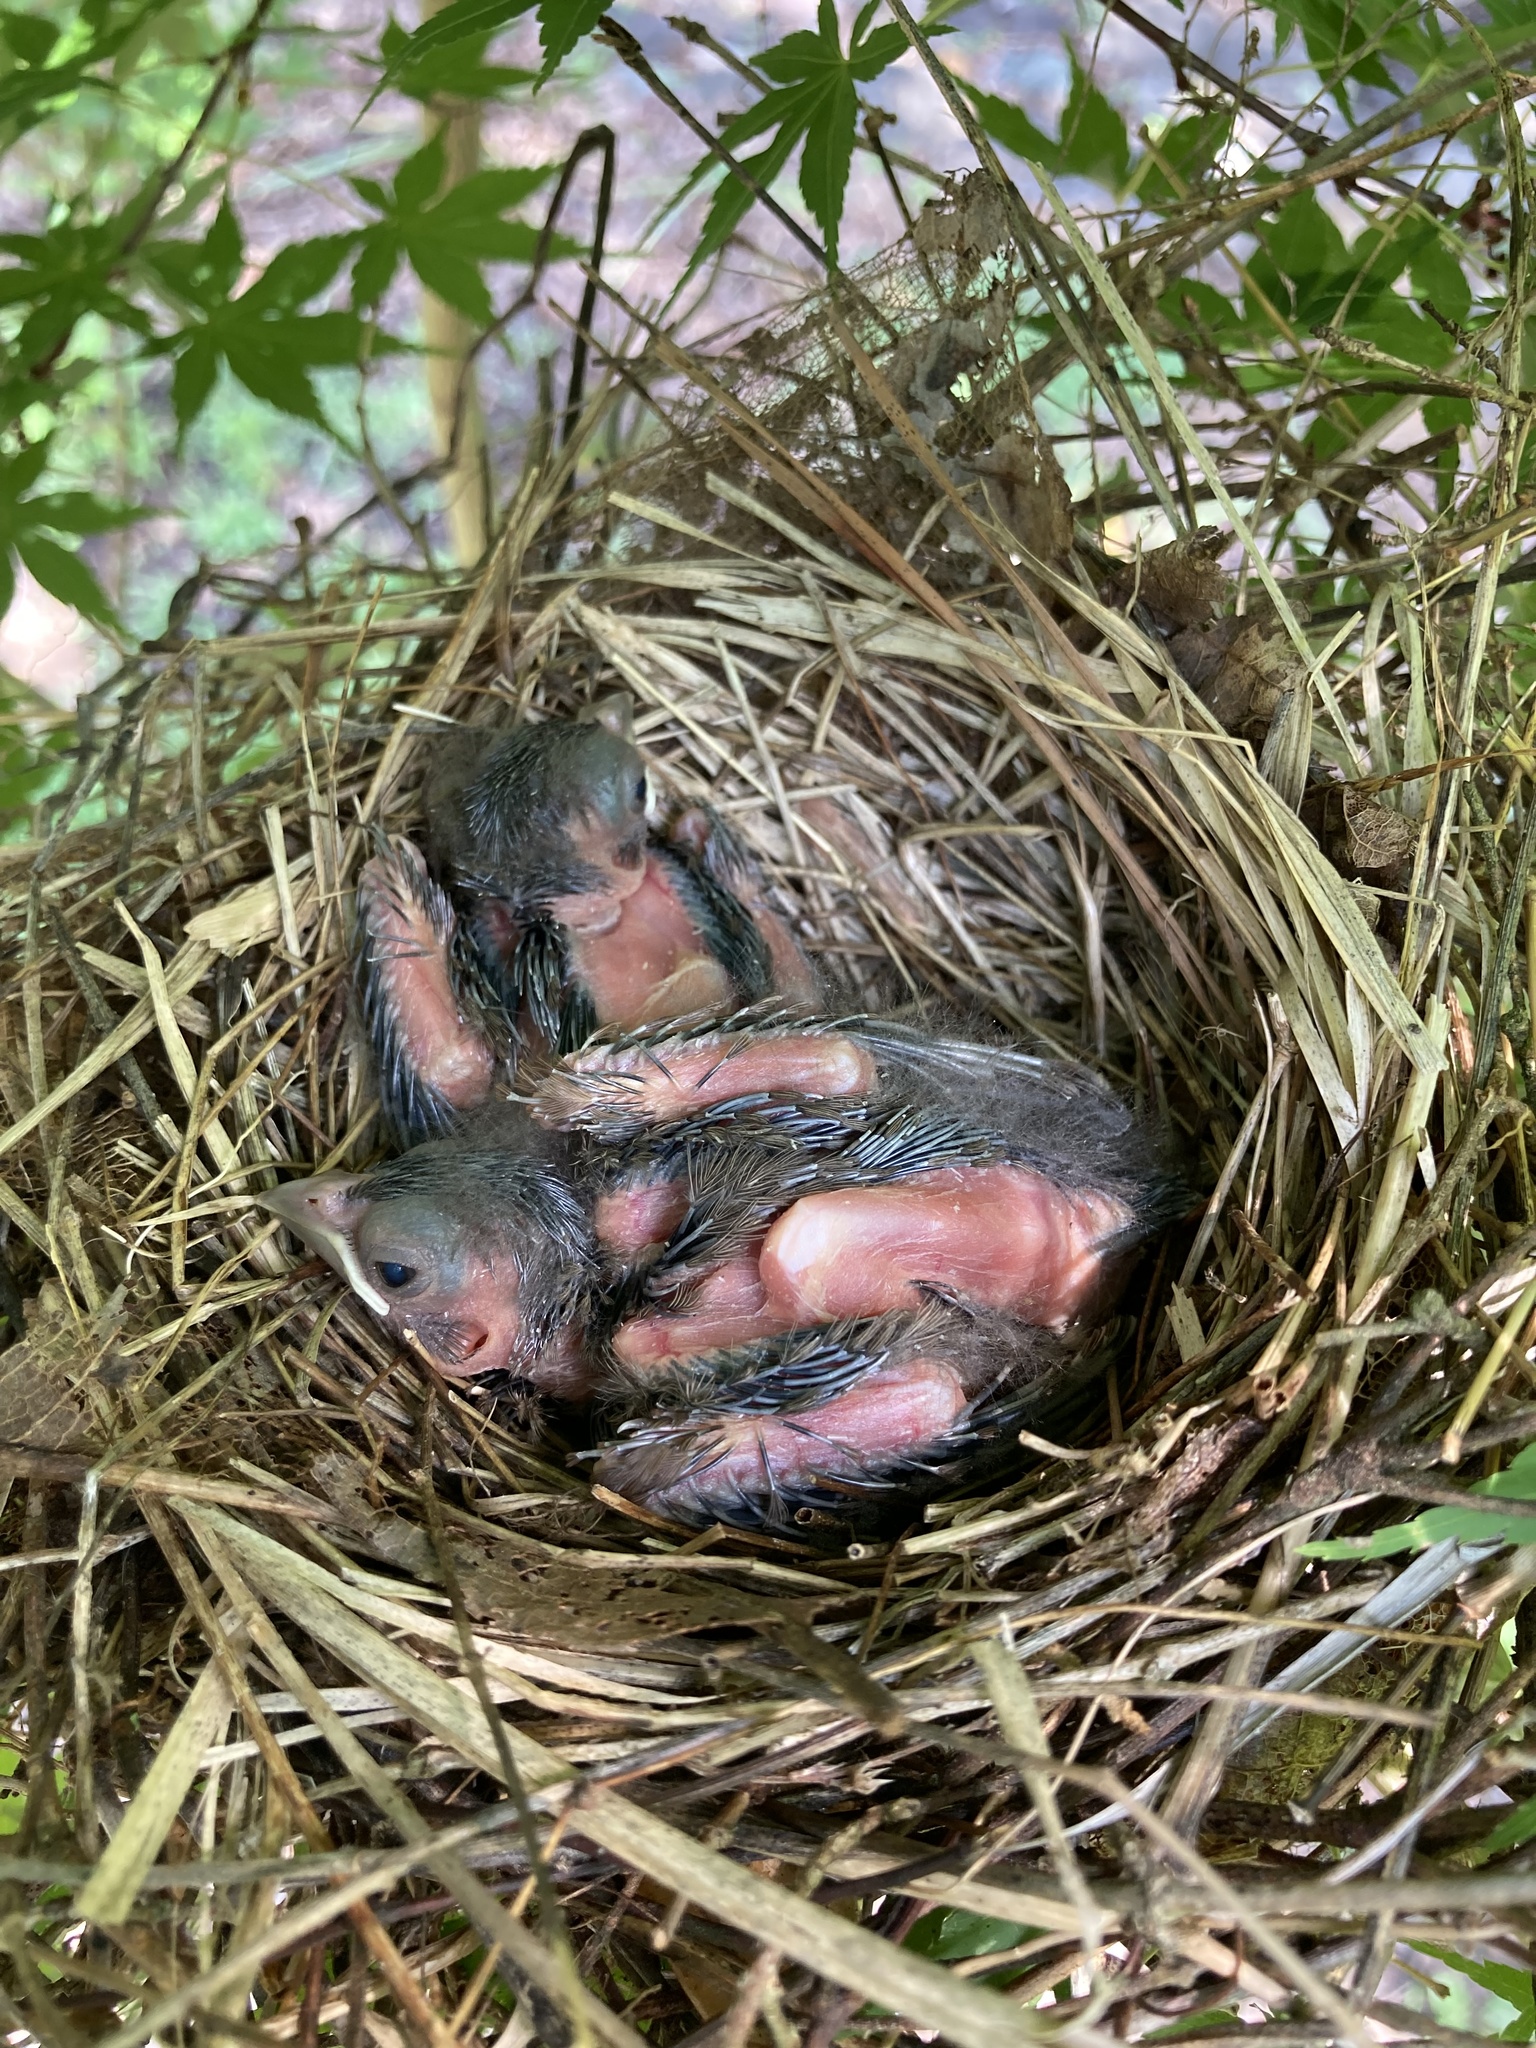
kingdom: Animalia
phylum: Chordata
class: Aves
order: Passeriformes
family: Cardinalidae
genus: Cardinalis
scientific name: Cardinalis cardinalis
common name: Northern cardinal
